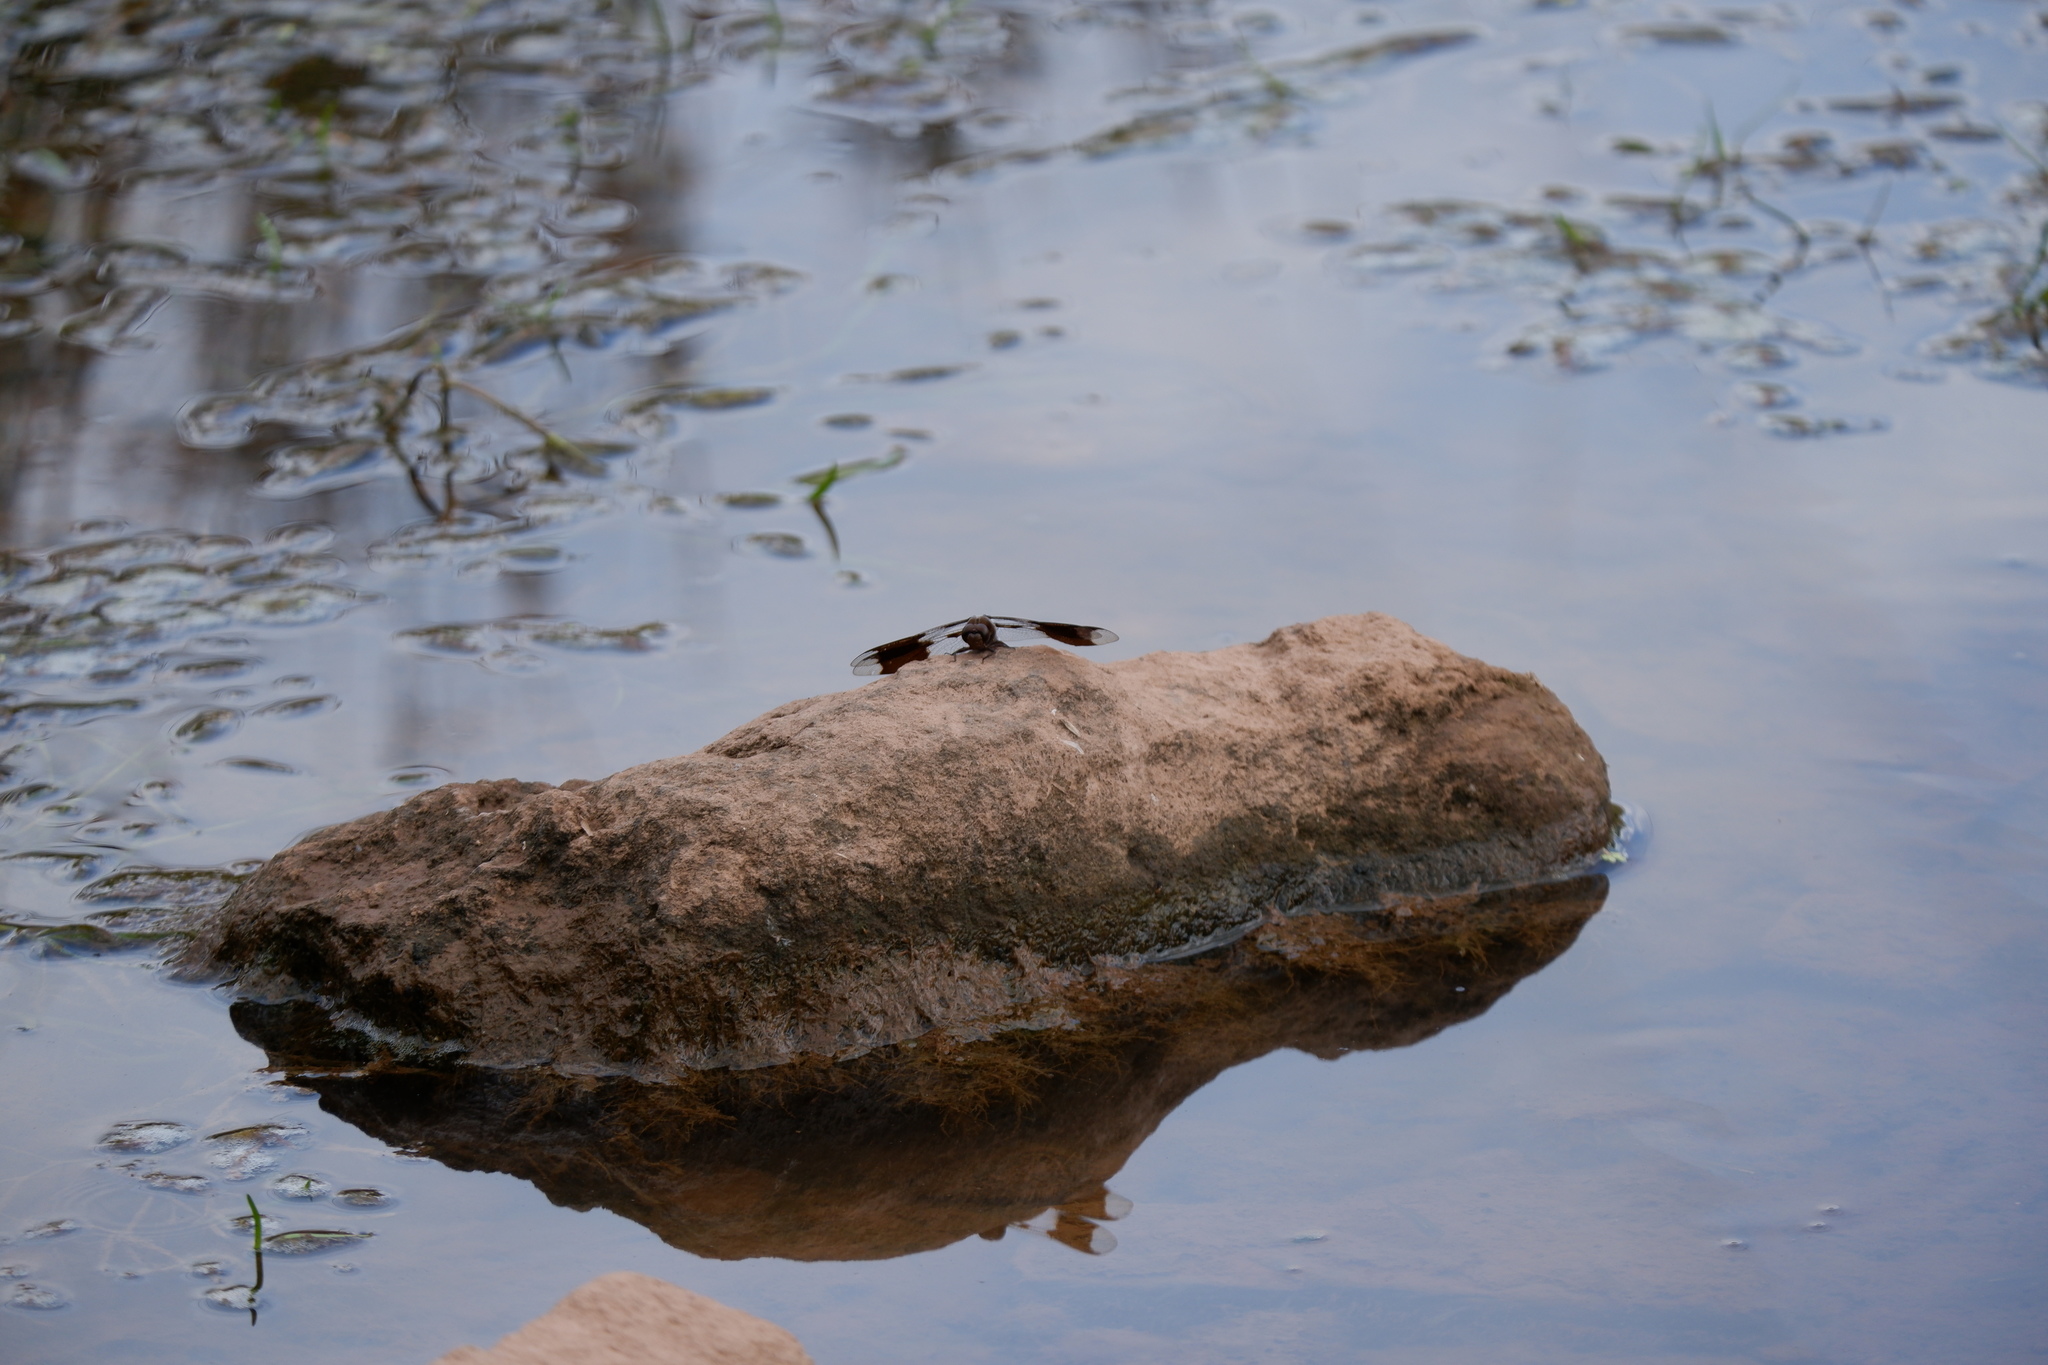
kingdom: Animalia
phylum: Arthropoda
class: Insecta
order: Odonata
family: Libellulidae
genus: Plathemis
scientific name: Plathemis lydia
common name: Common whitetail
